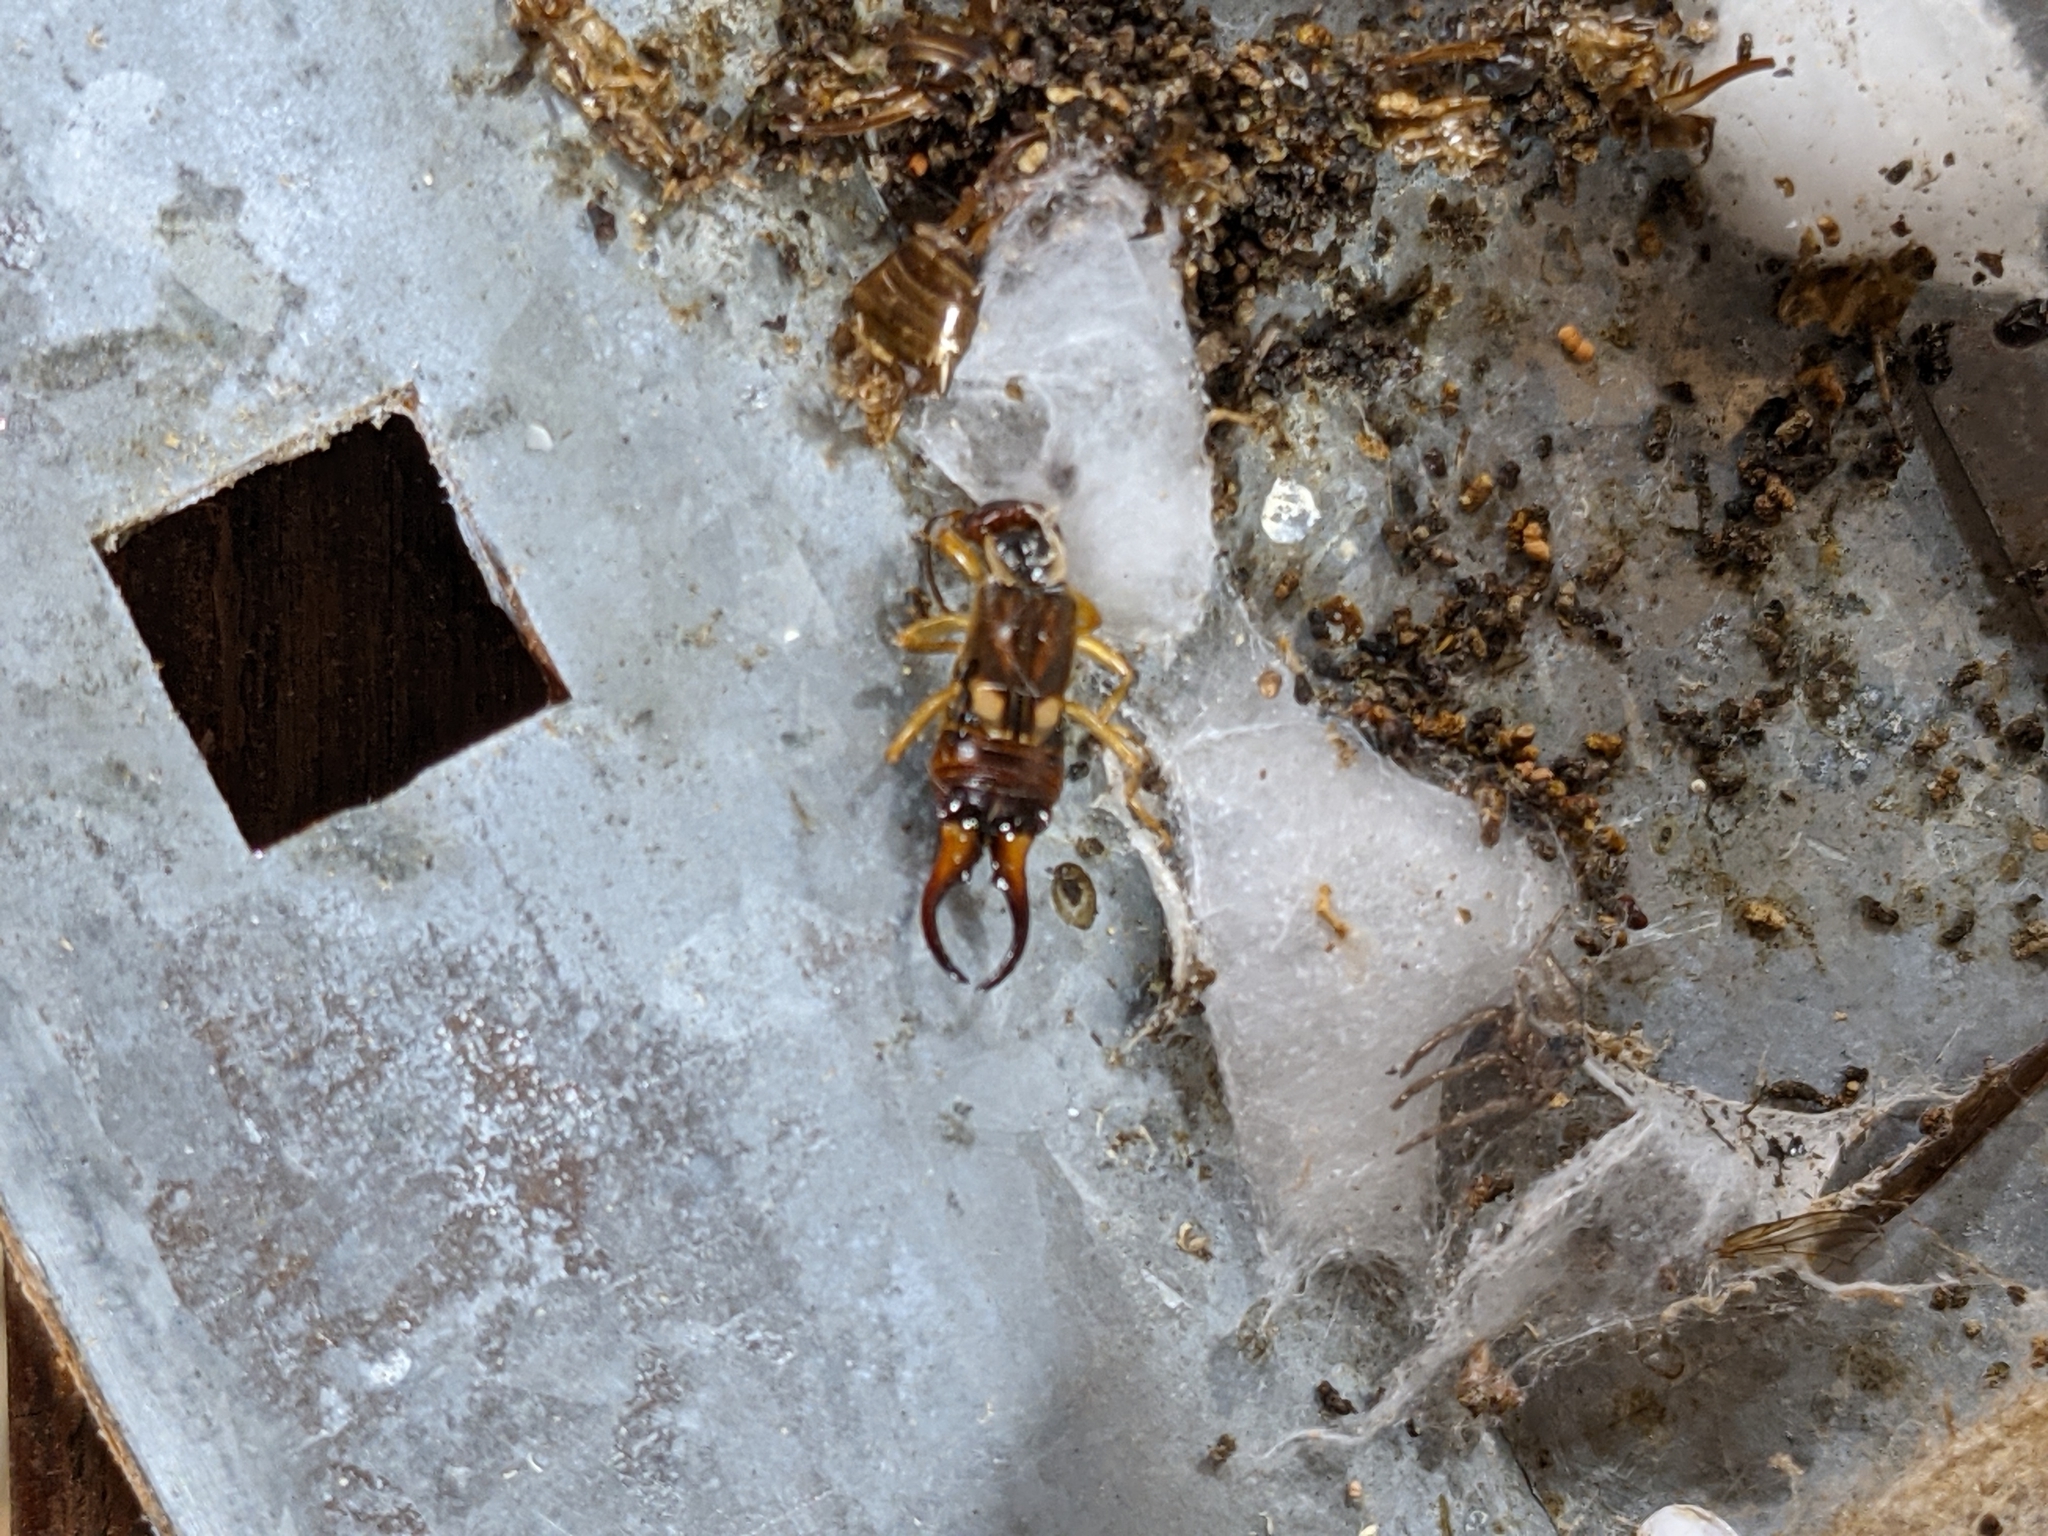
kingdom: Animalia
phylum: Arthropoda
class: Insecta
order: Dermaptera
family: Forficulidae
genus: Forficula
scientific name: Forficula
